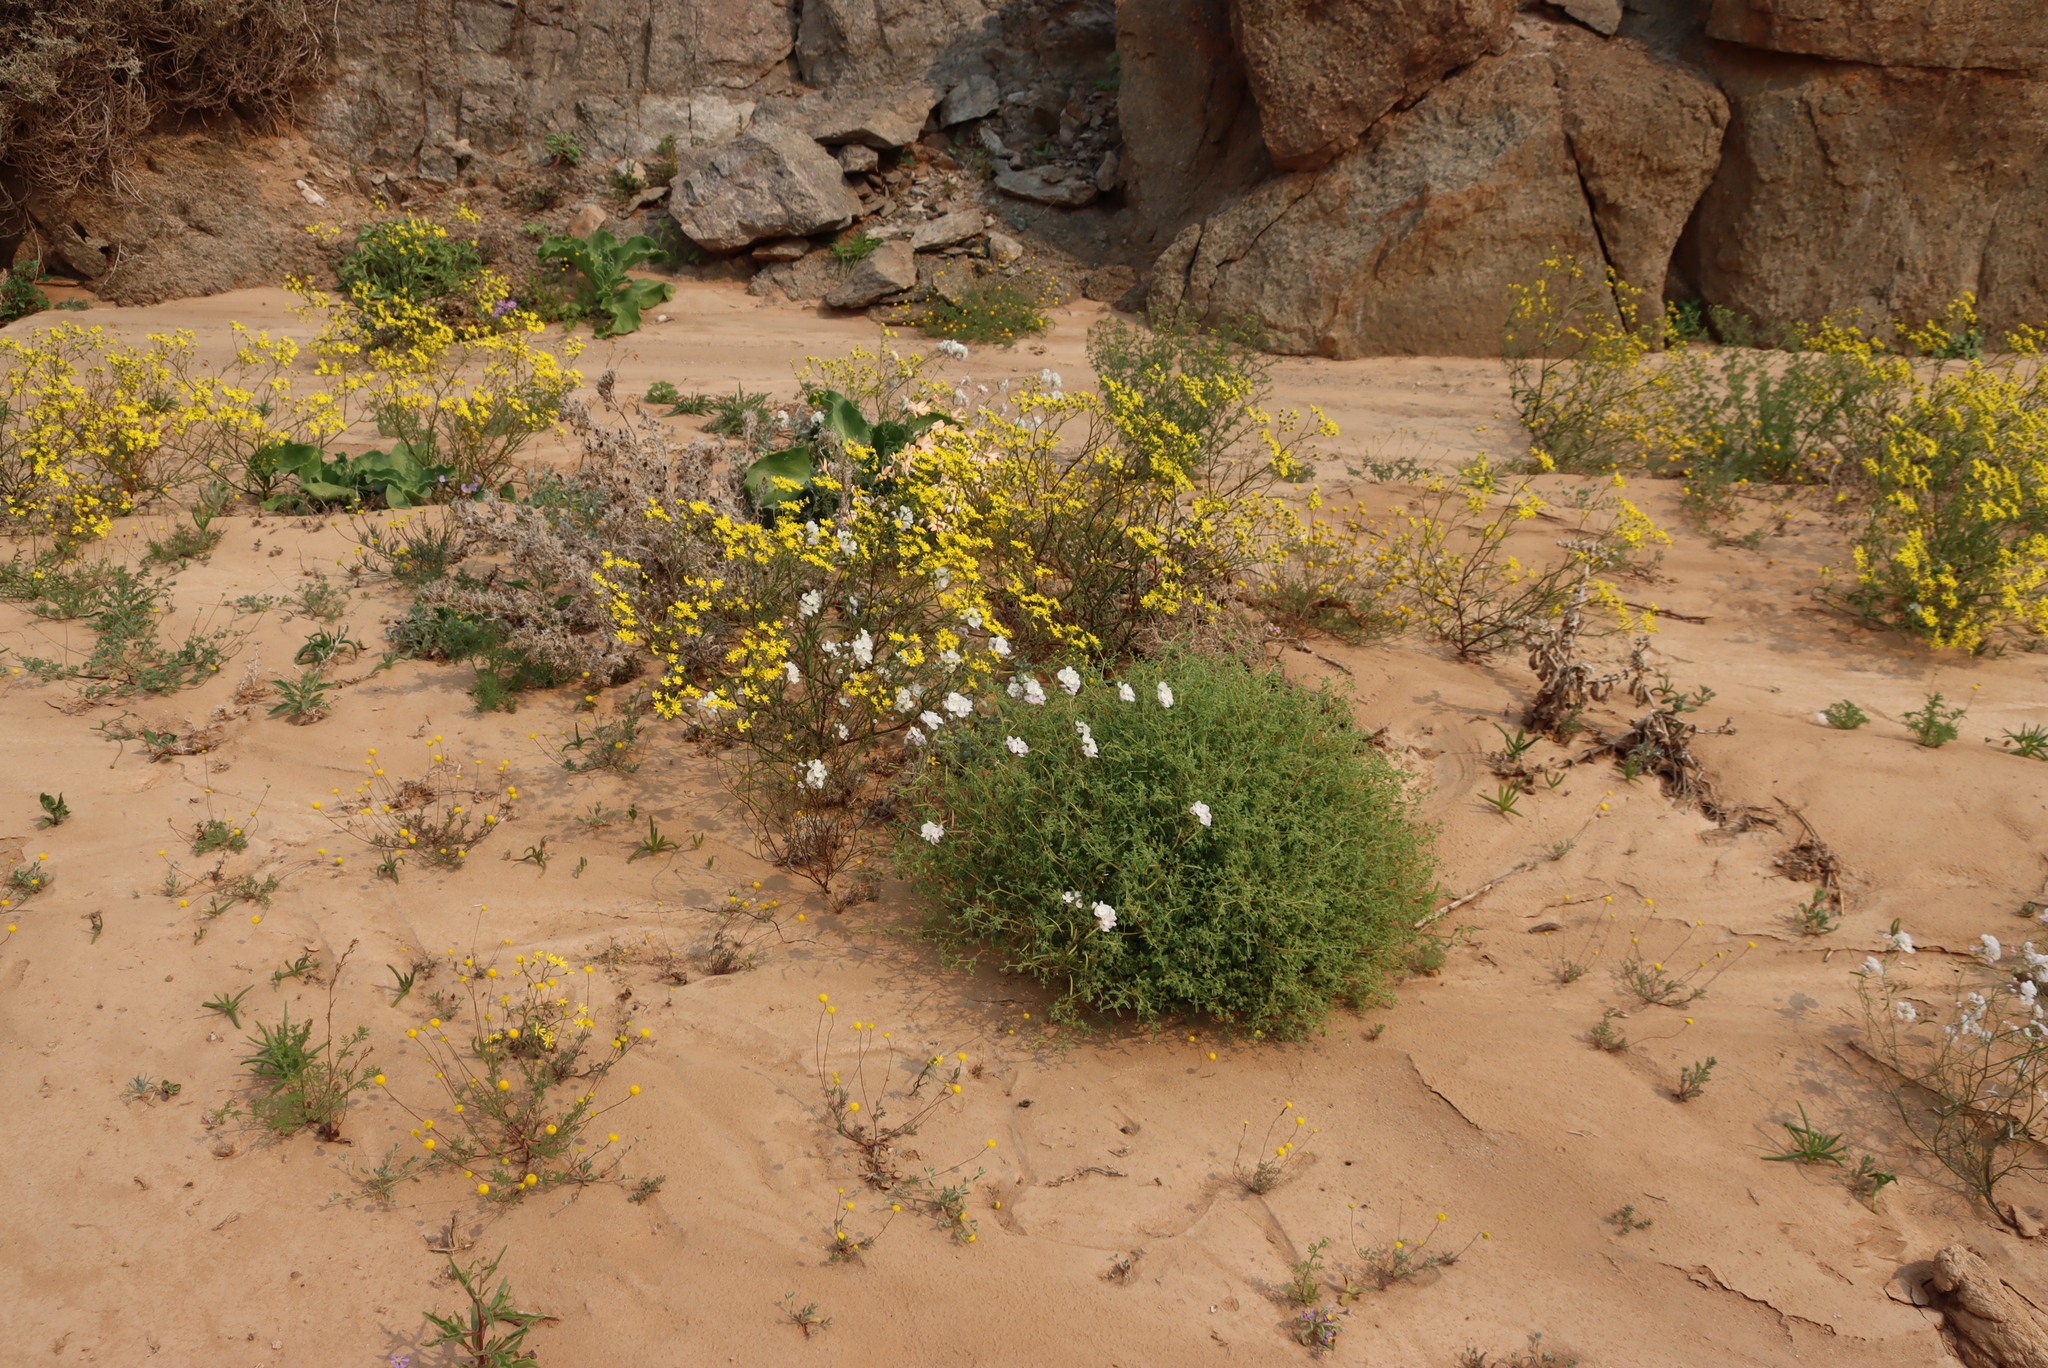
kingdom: Plantae
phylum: Tracheophyta
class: Magnoliopsida
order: Brassicales
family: Brassicaceae
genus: Heliophila
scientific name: Heliophila variabilis
